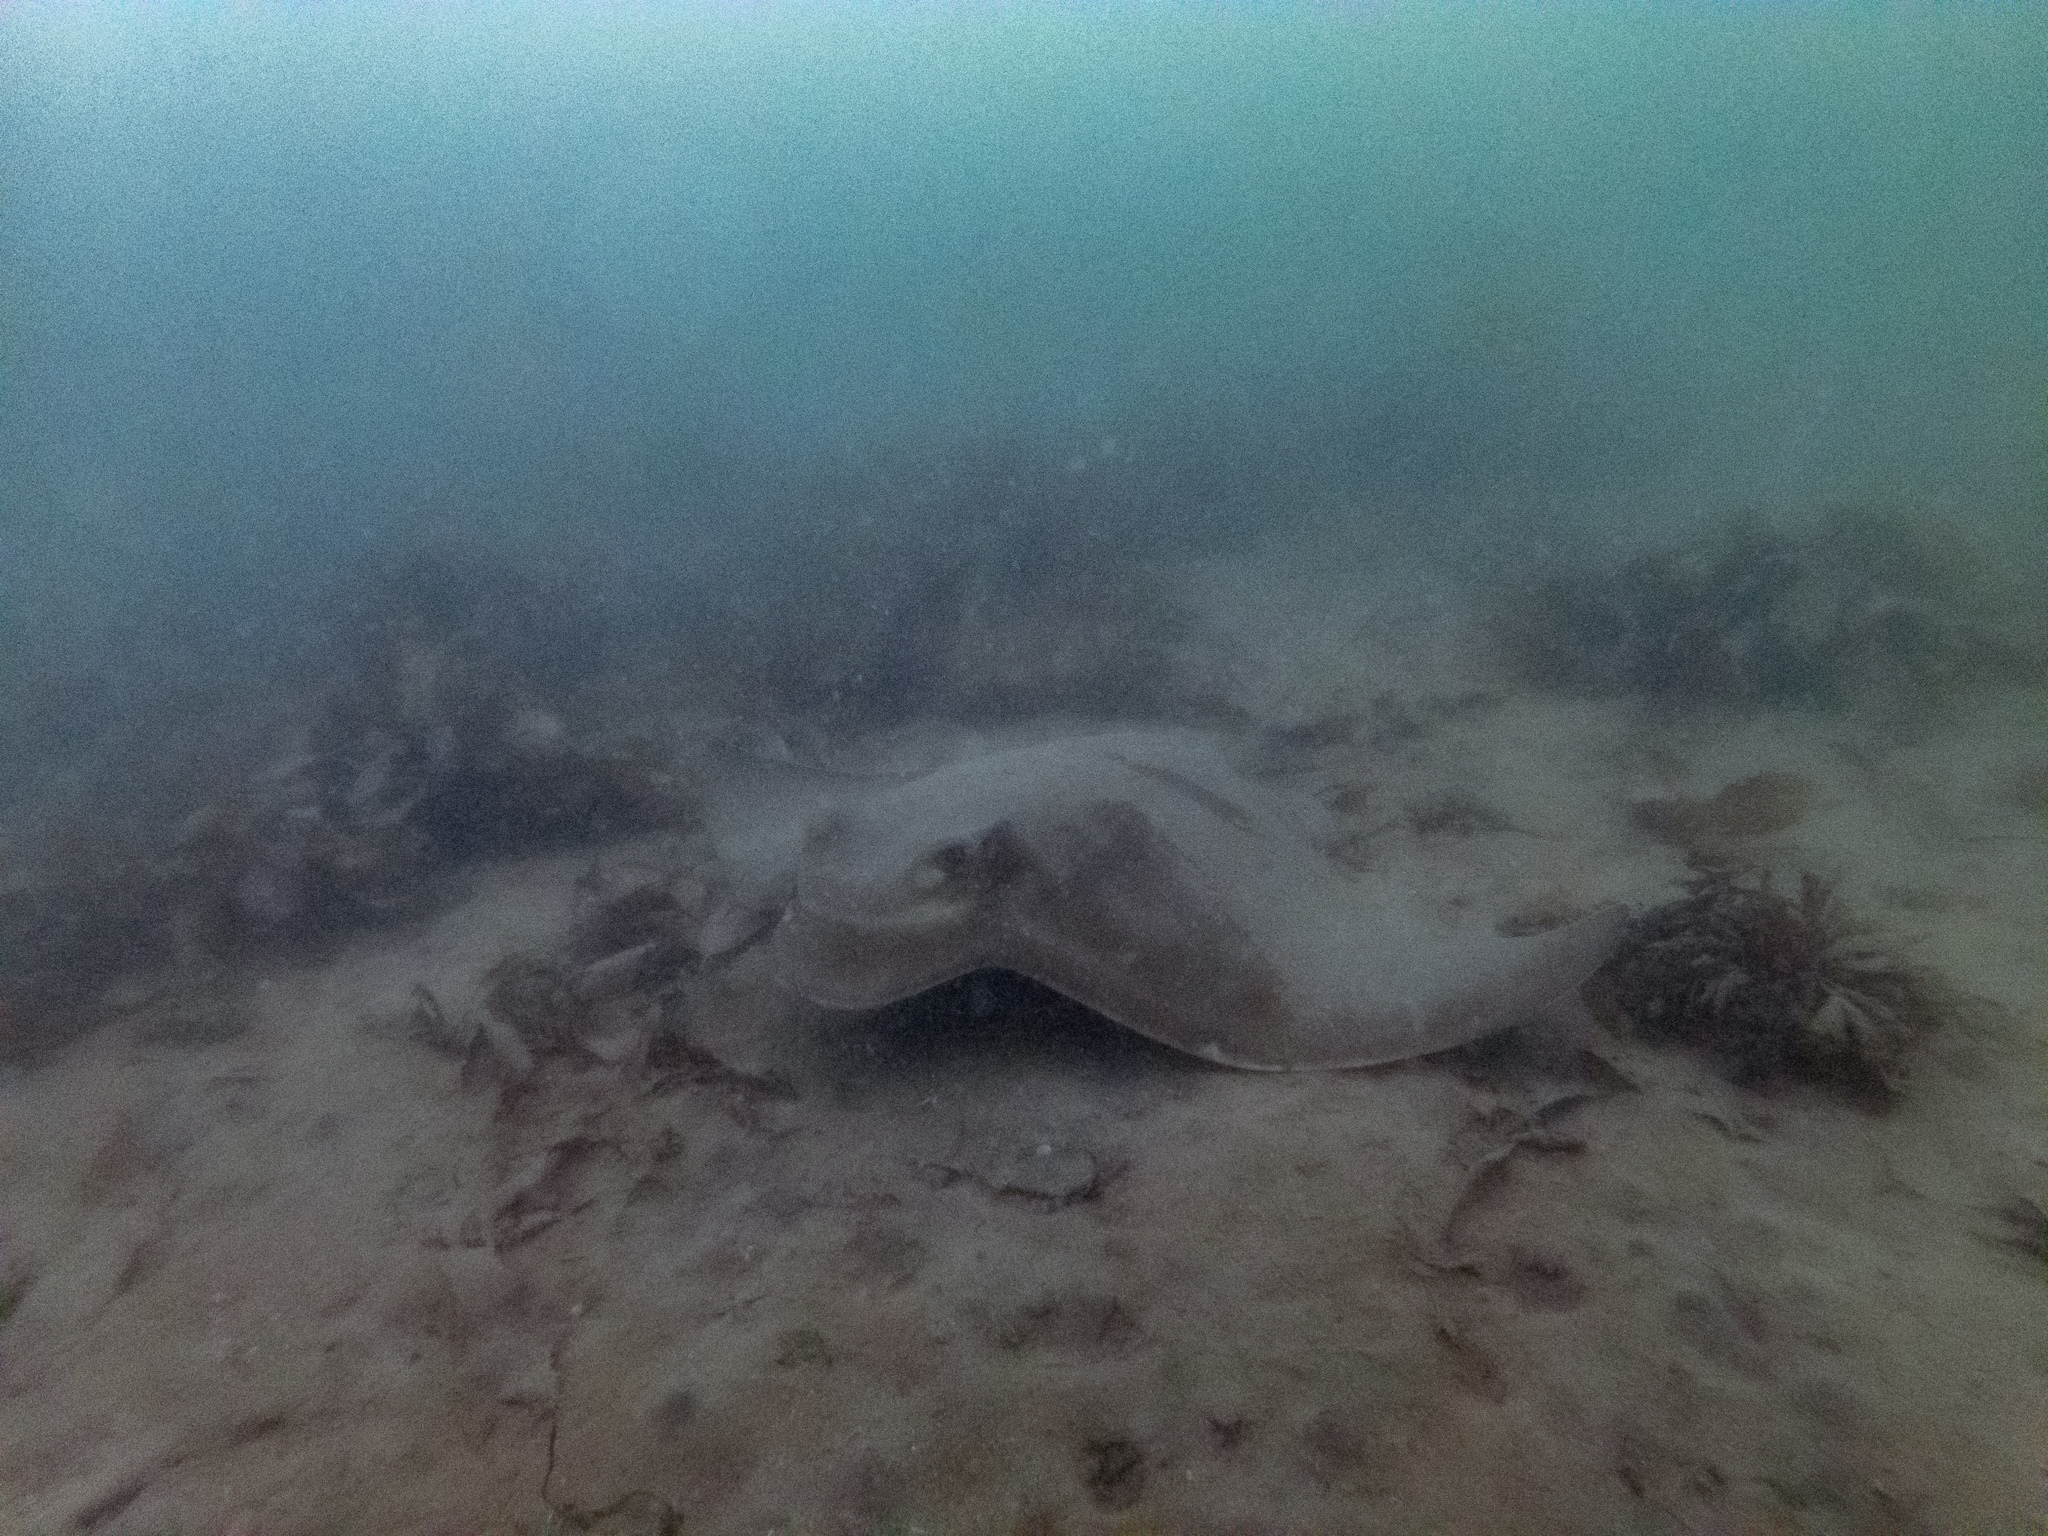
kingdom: Animalia
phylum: Chordata
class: Elasmobranchii
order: Myliobatiformes
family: Myliobatidae
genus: Myliobatis
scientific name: Myliobatis tenuicaudatus
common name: Eagle ray
